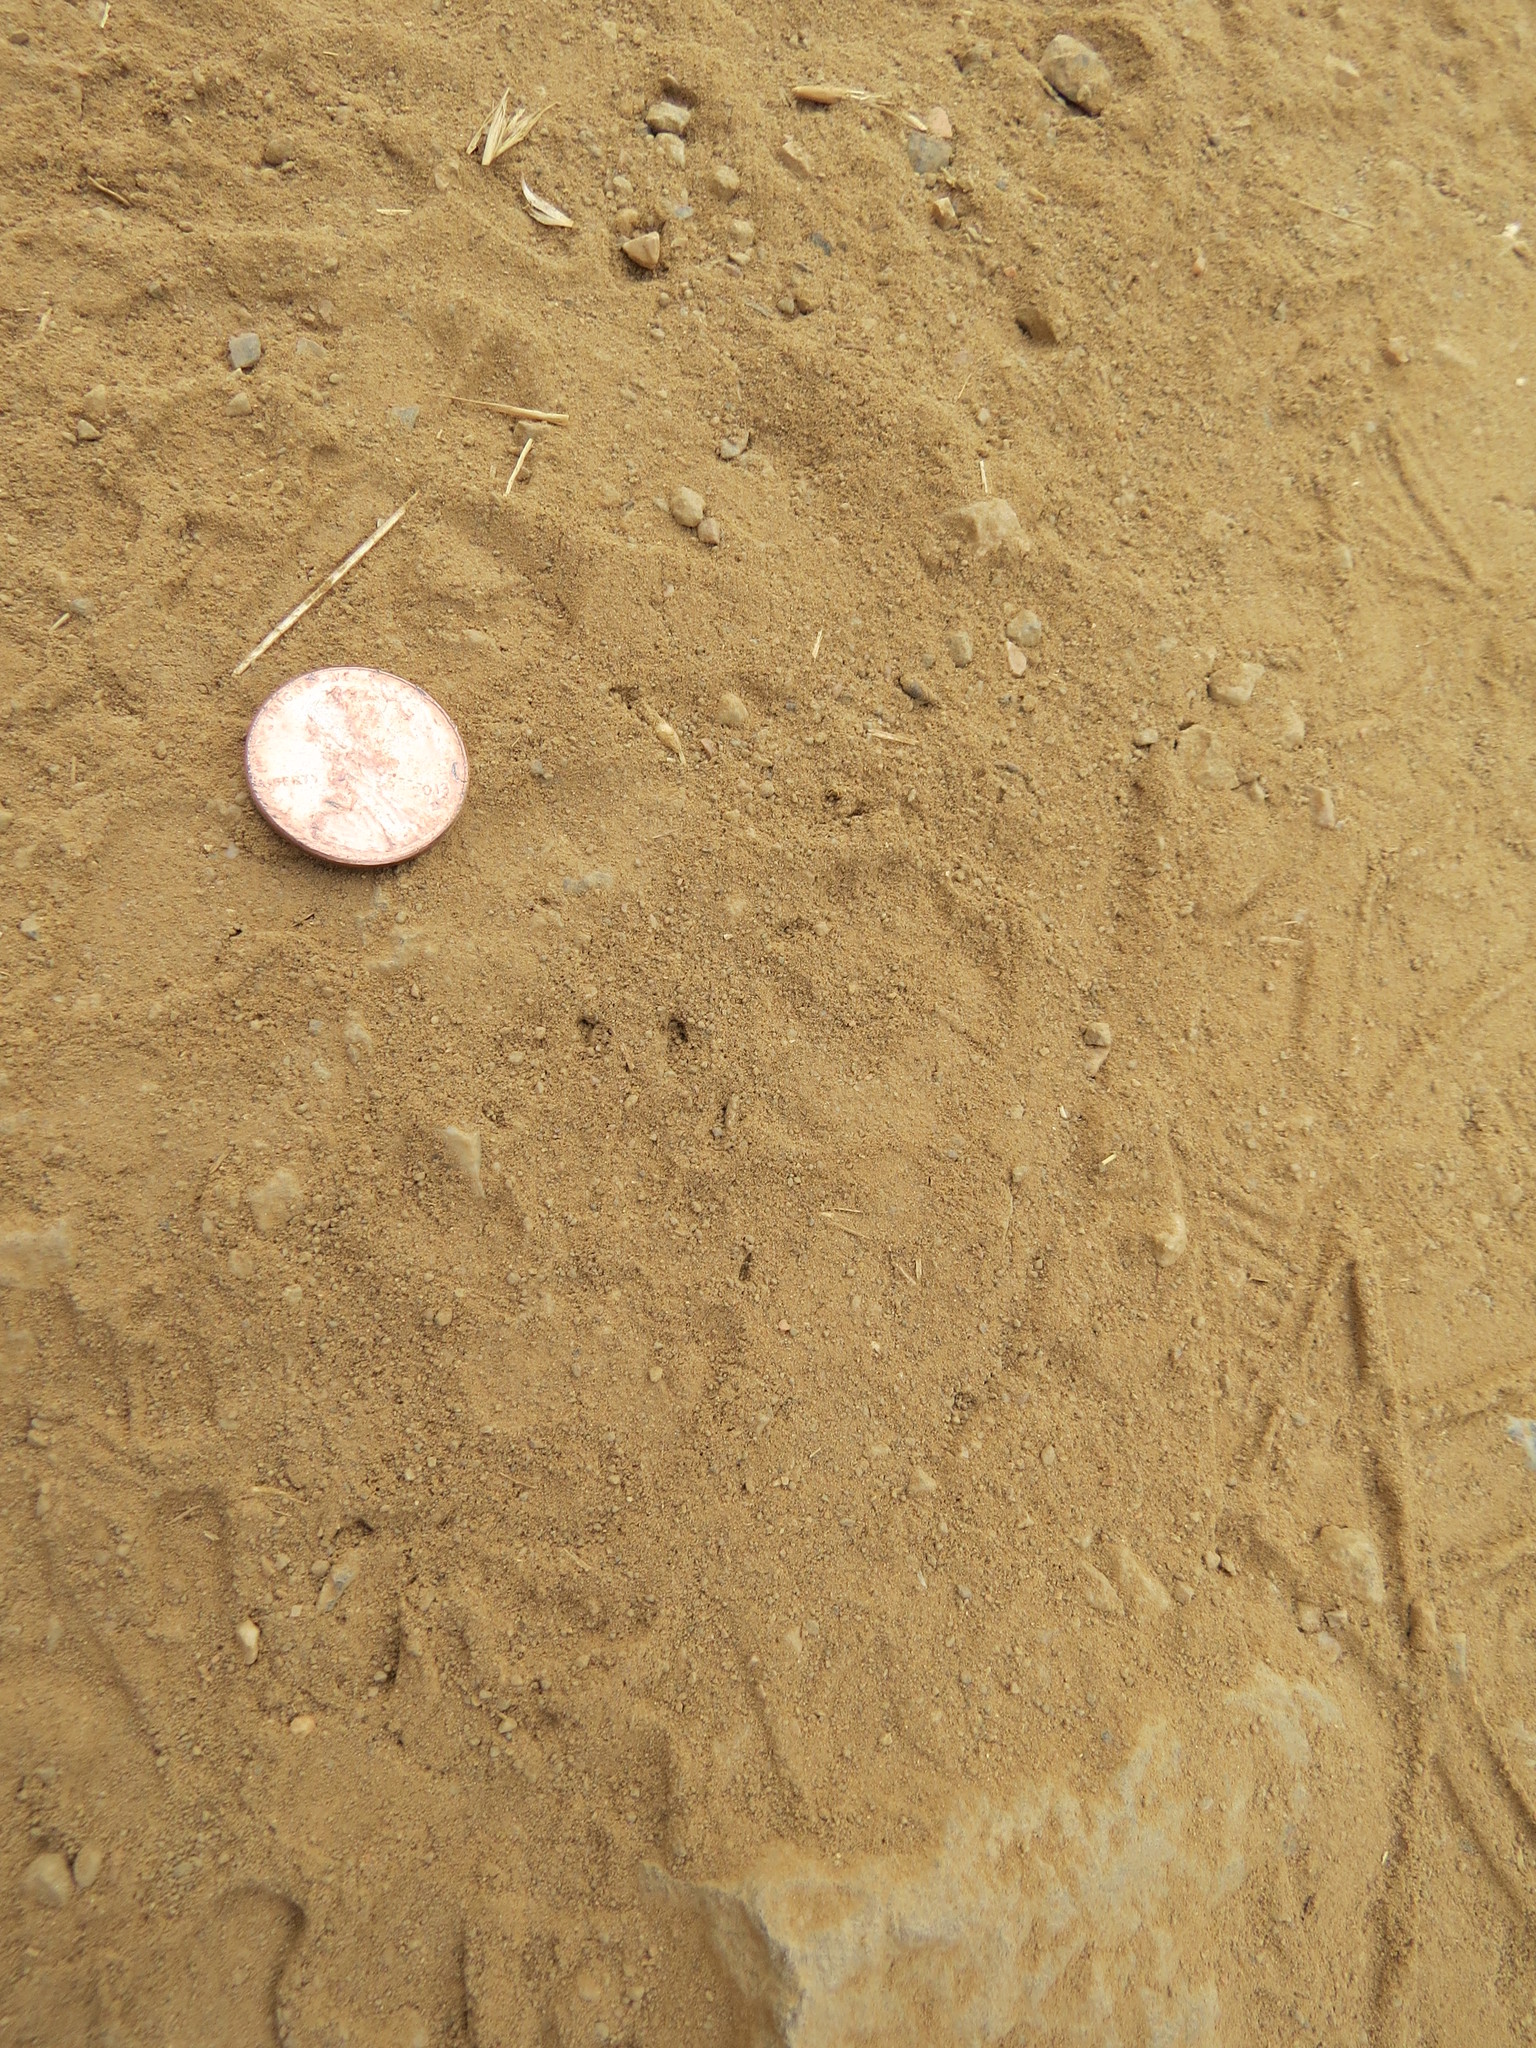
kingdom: Animalia
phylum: Chordata
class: Mammalia
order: Carnivora
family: Mephitidae
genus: Mephitis
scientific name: Mephitis mephitis
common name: Striped skunk
